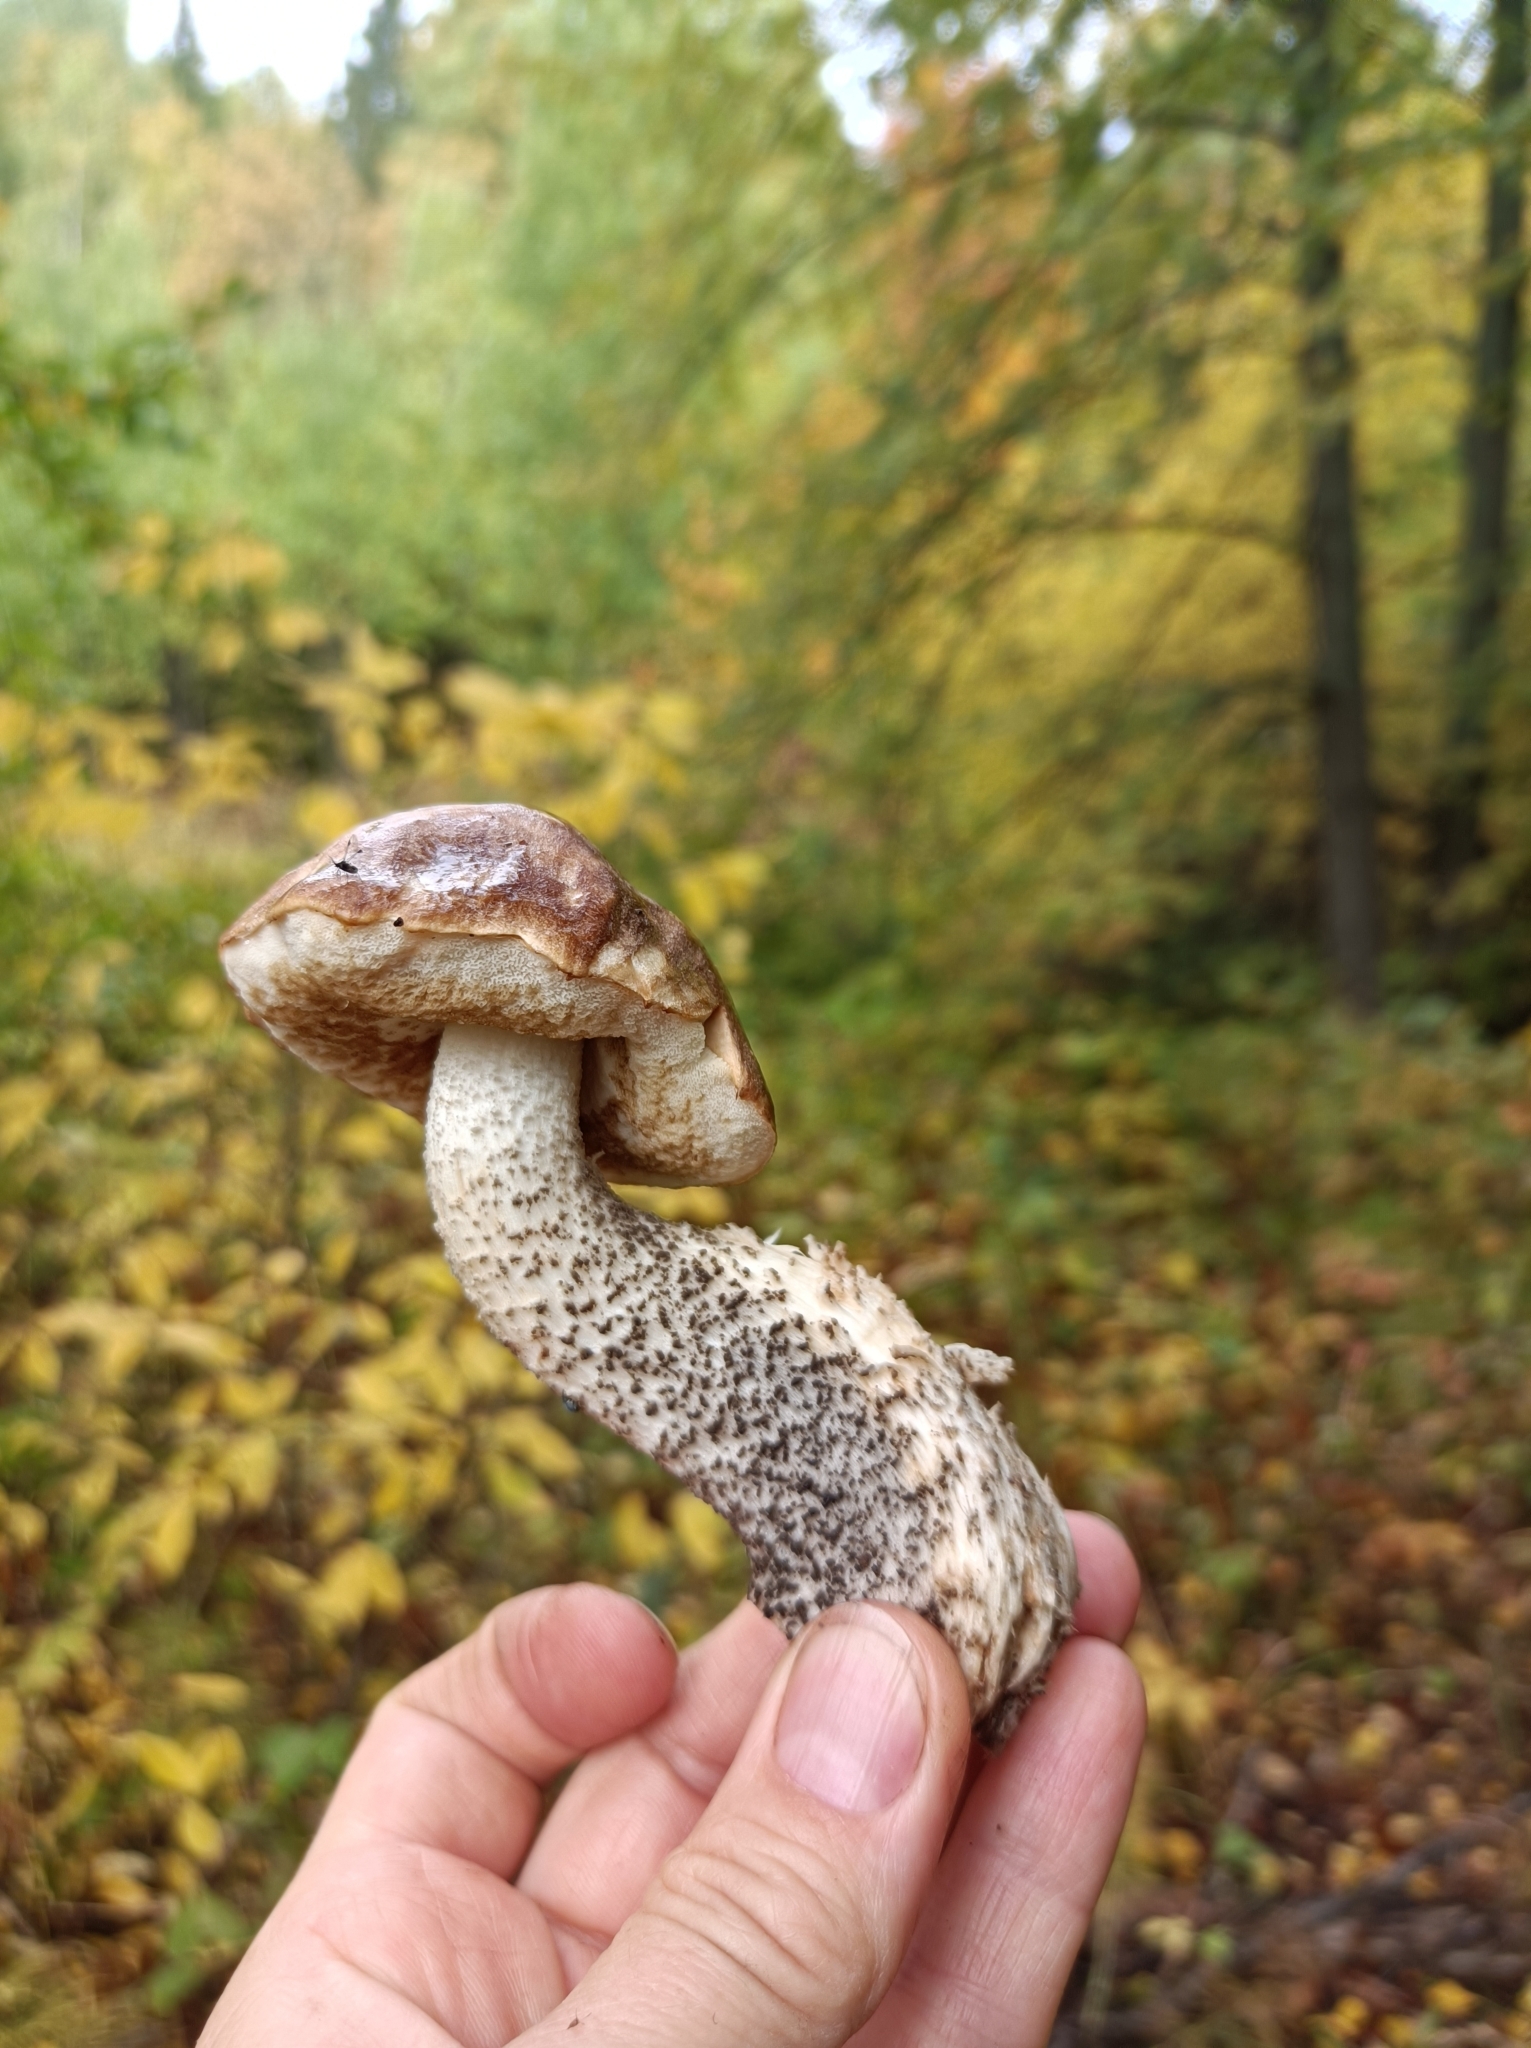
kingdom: Fungi
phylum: Basidiomycota
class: Agaricomycetes
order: Boletales
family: Boletaceae
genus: Leccinum
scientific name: Leccinum scabrum
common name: Blushing bolete
